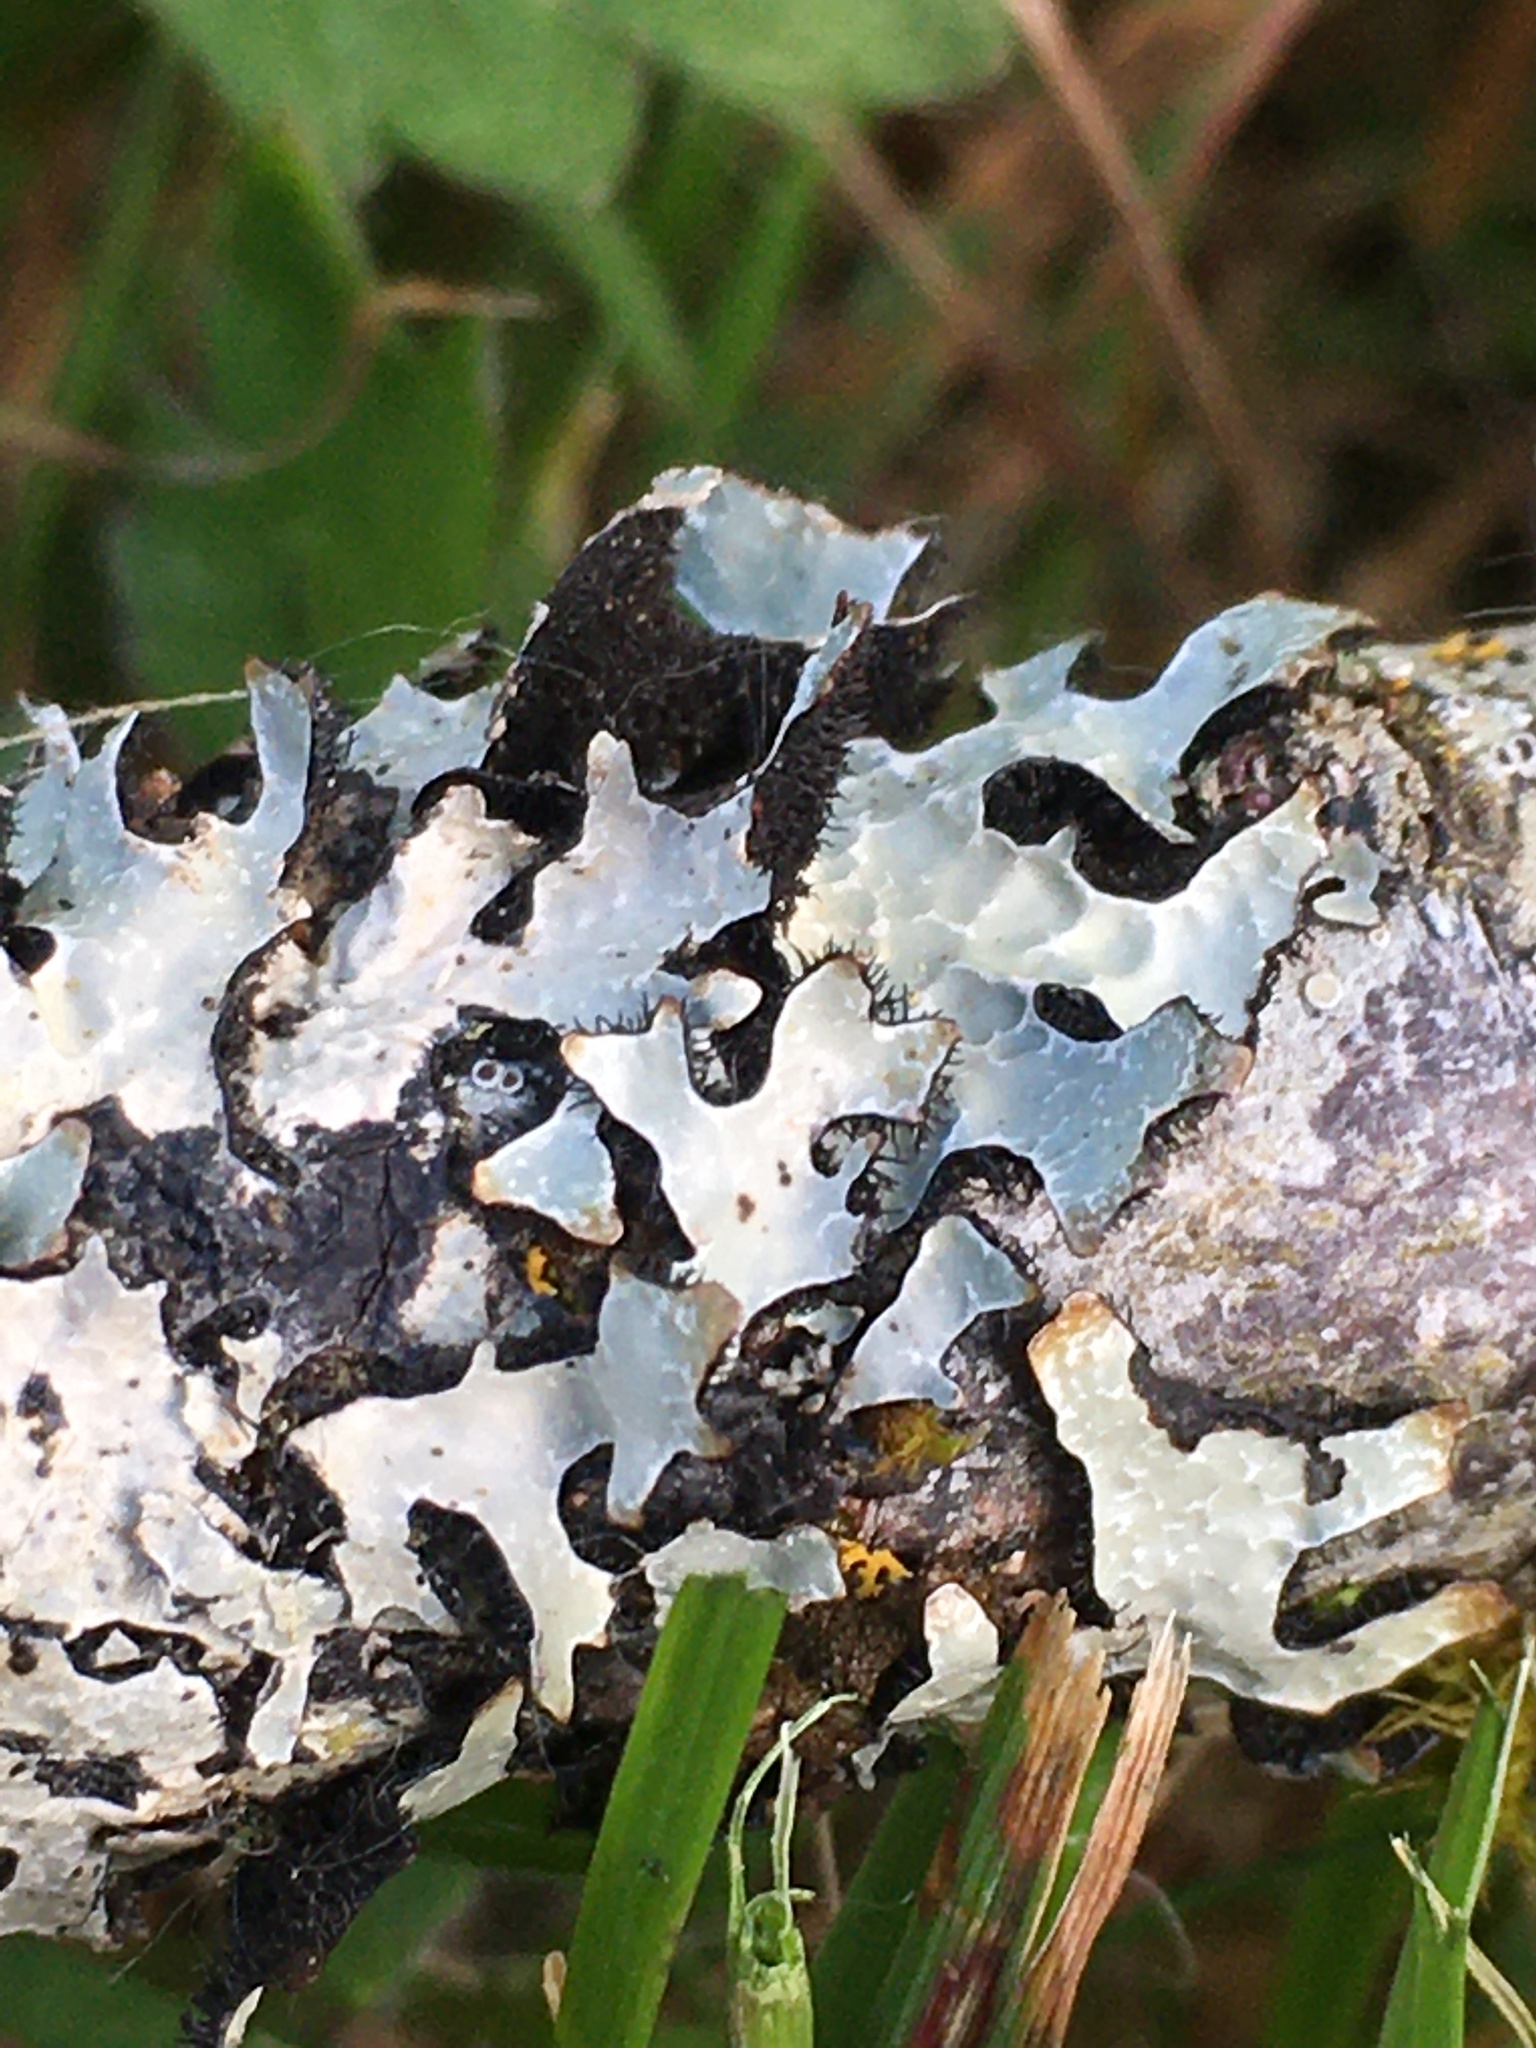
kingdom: Fungi
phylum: Ascomycota
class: Lecanoromycetes
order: Lecanorales
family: Parmeliaceae
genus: Parmelia
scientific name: Parmelia sulcata
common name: Netted shield lichen
